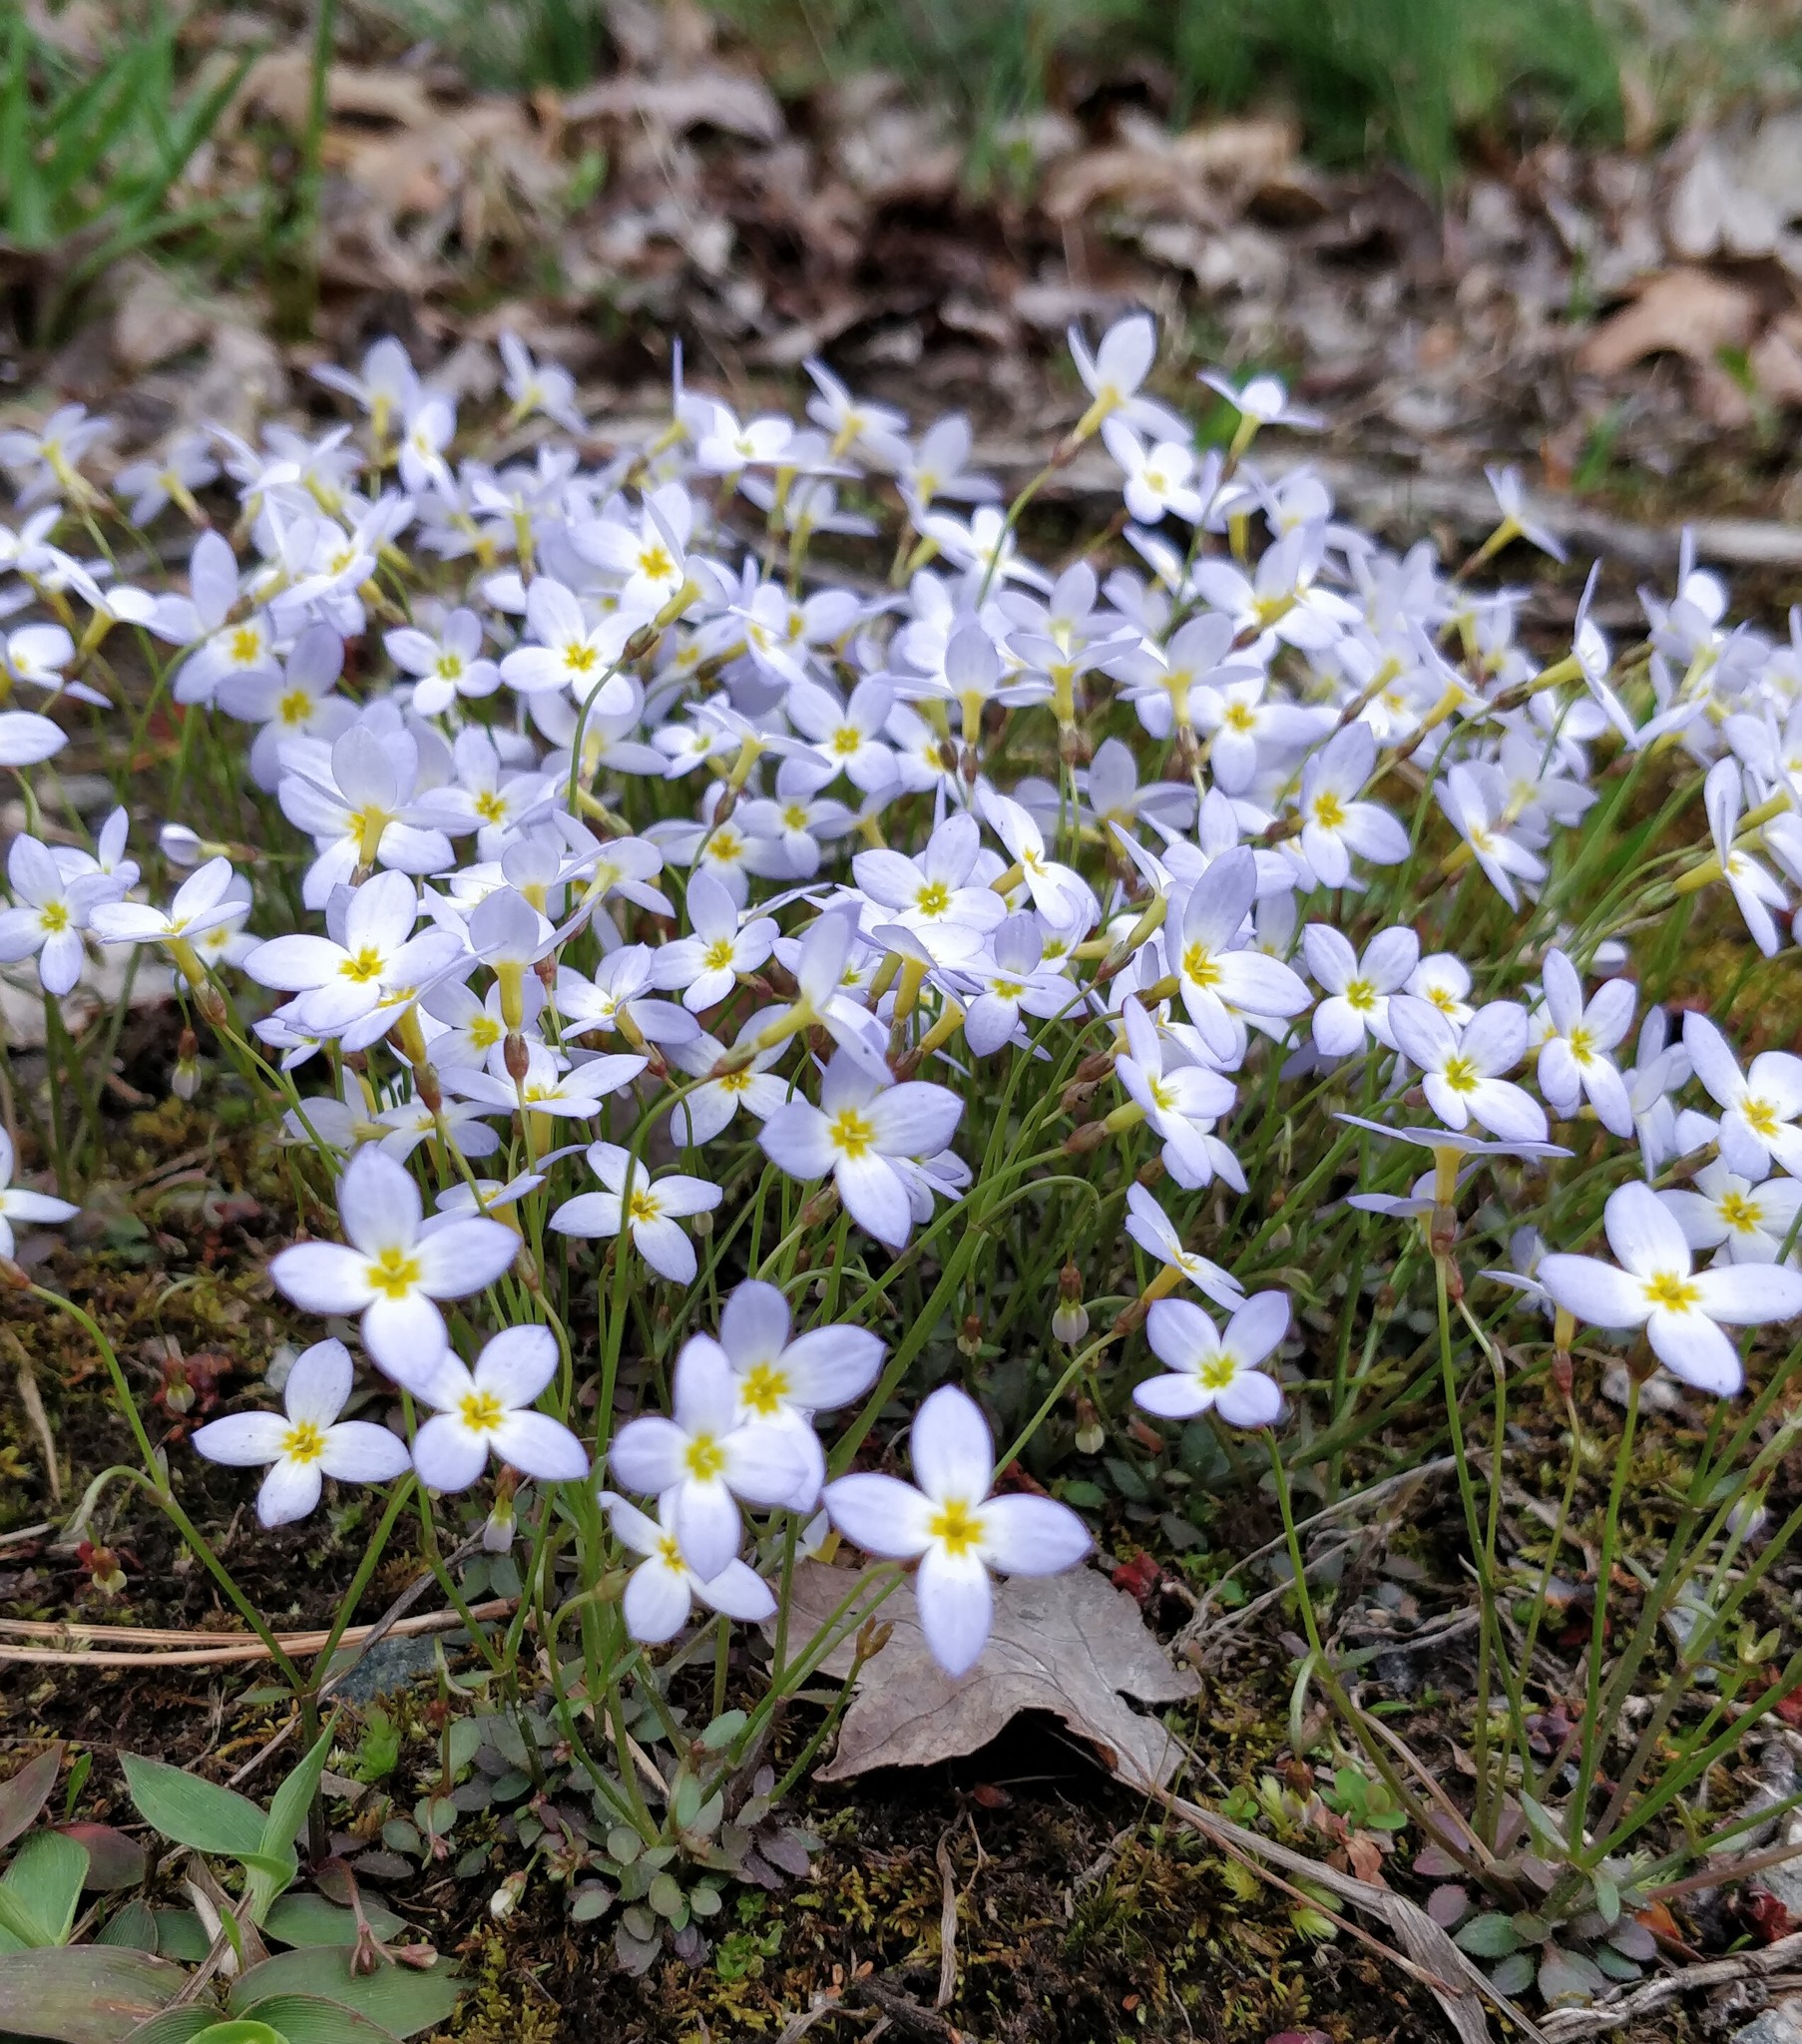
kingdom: Plantae
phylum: Tracheophyta
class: Magnoliopsida
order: Gentianales
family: Rubiaceae
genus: Houstonia
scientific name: Houstonia caerulea
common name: Bluets
